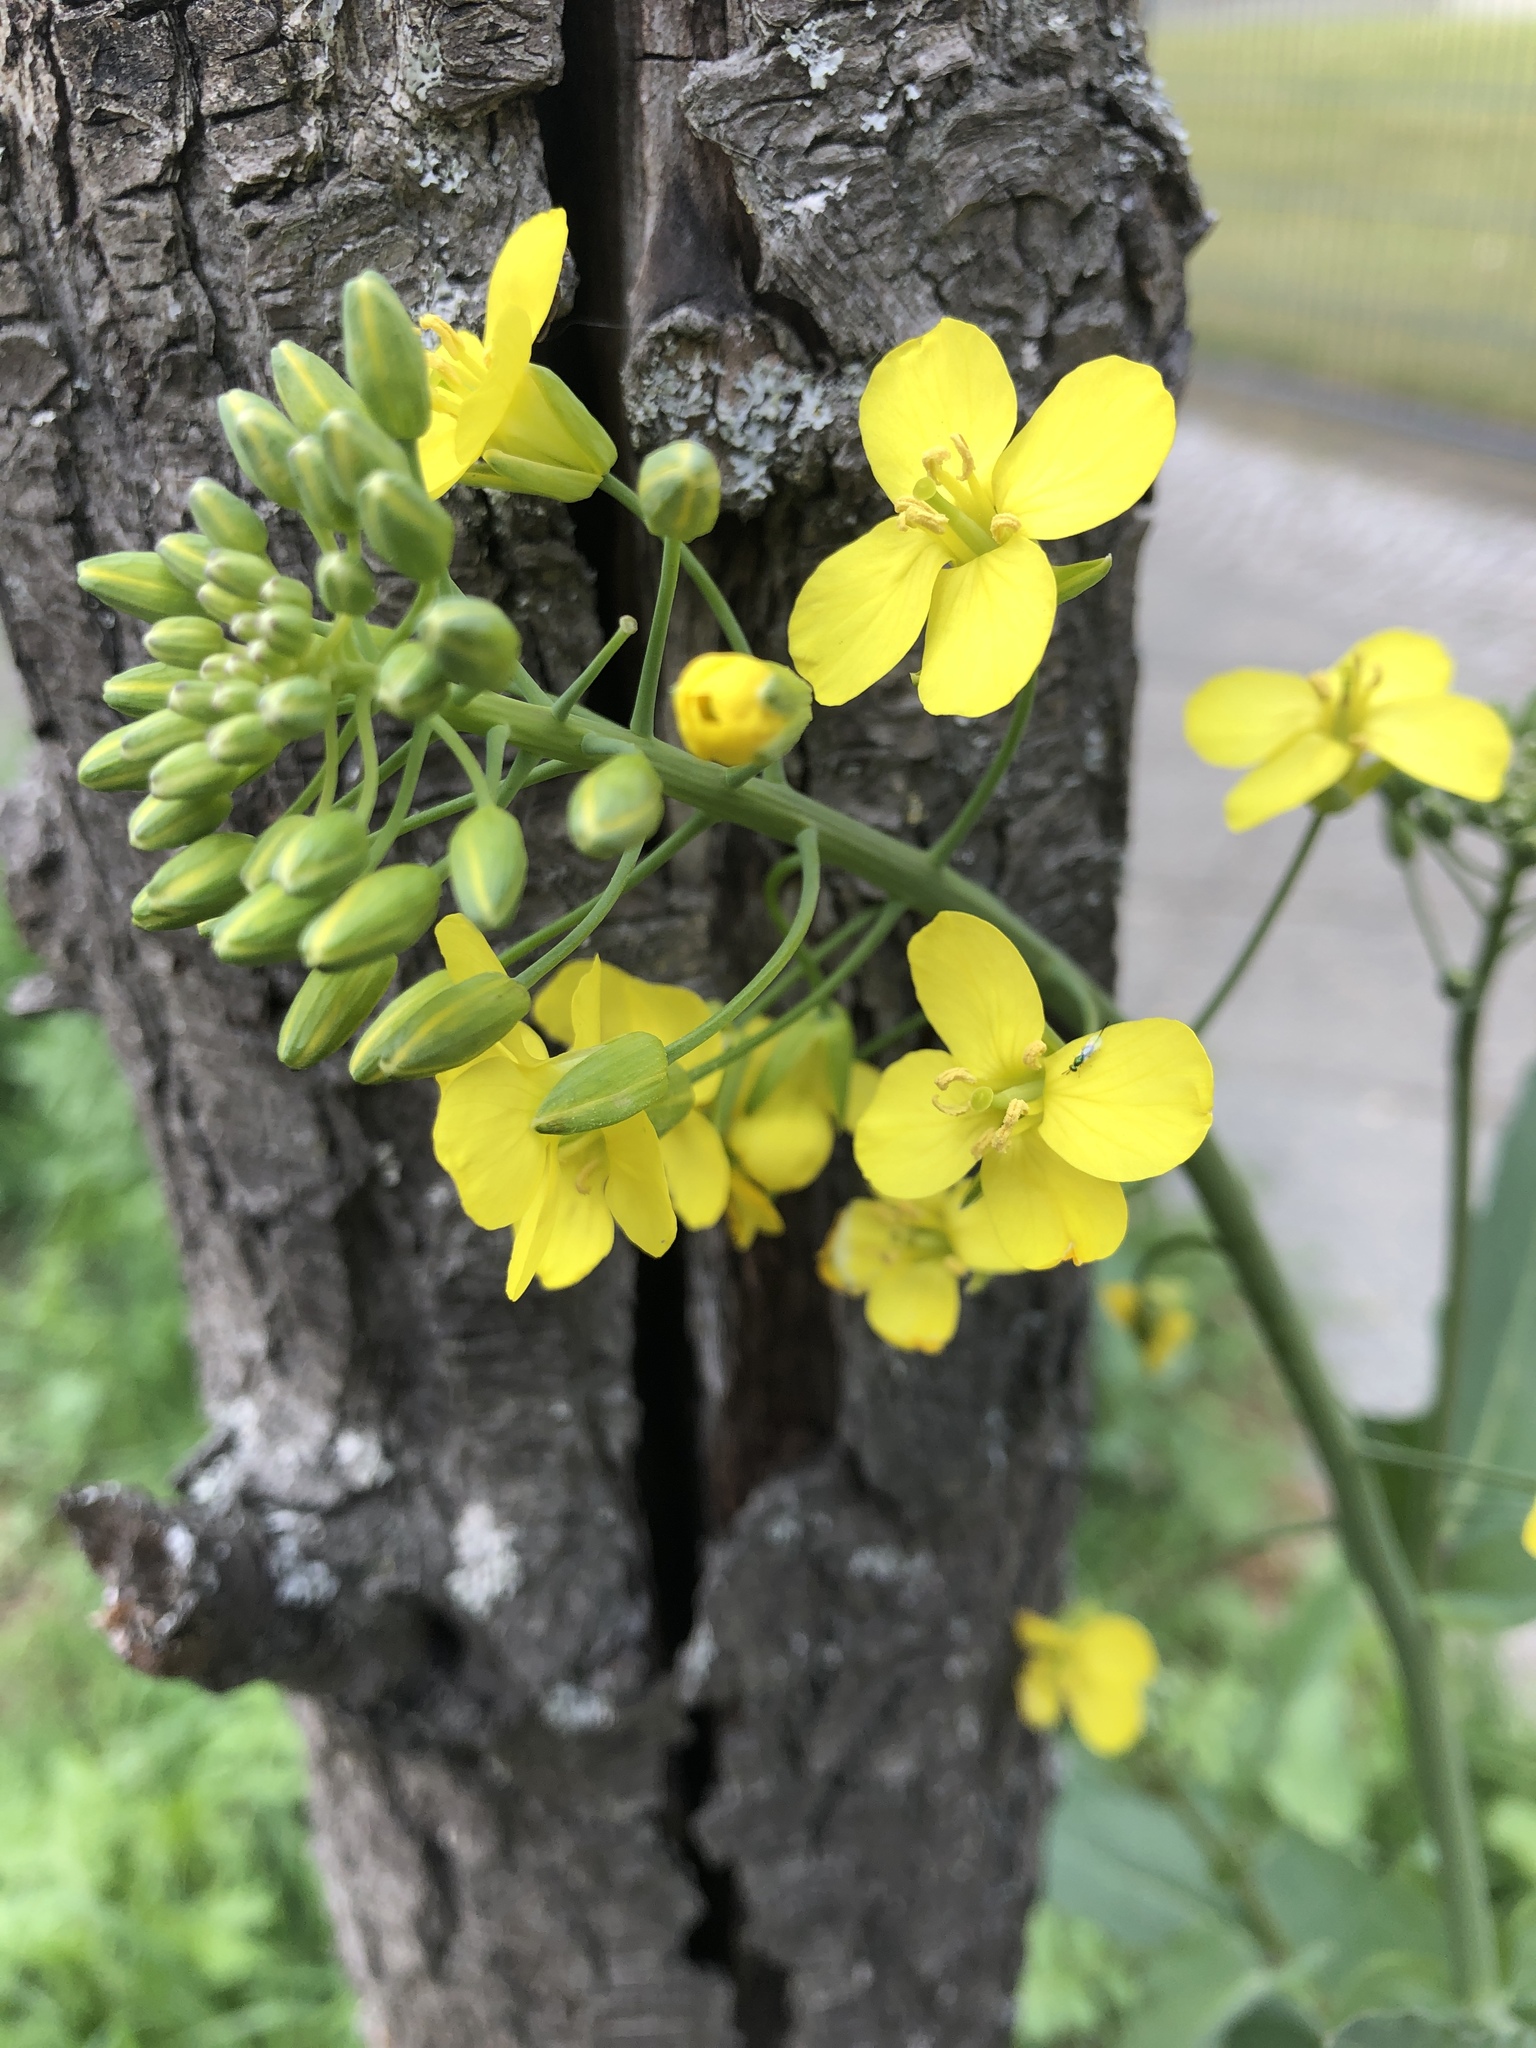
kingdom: Plantae
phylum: Tracheophyta
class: Magnoliopsida
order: Brassicales
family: Brassicaceae
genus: Brassica
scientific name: Brassica napus
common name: Rape
